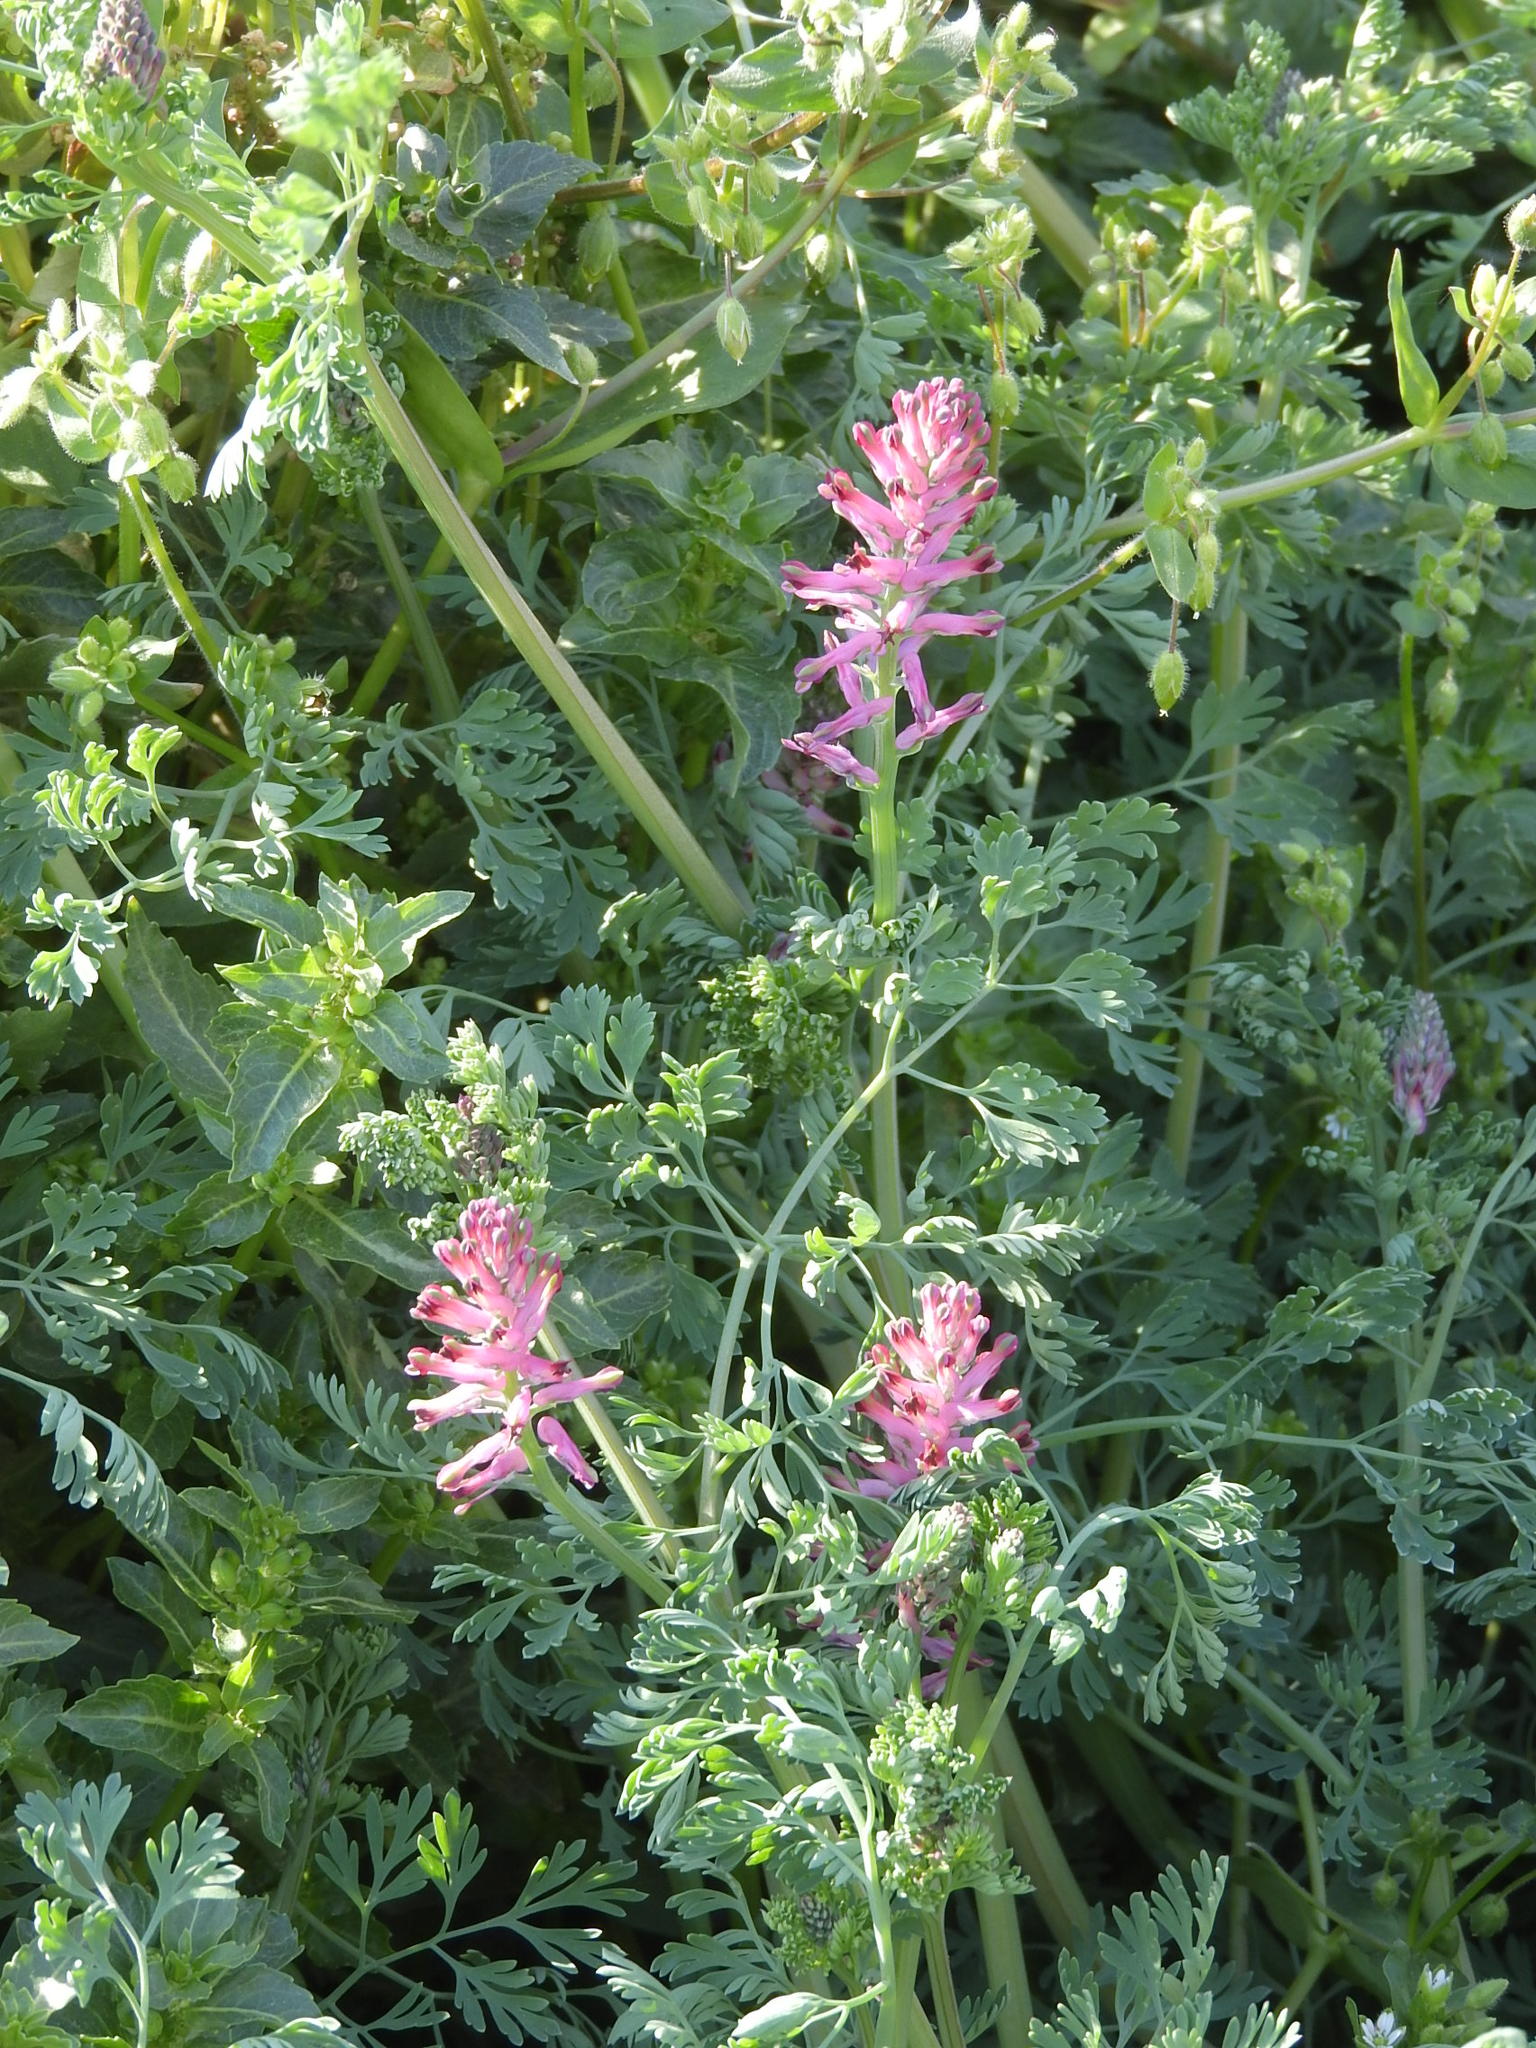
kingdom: Plantae
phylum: Tracheophyta
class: Magnoliopsida
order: Ranunculales
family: Papaveraceae
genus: Fumaria
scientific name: Fumaria officinalis
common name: Common fumitory
